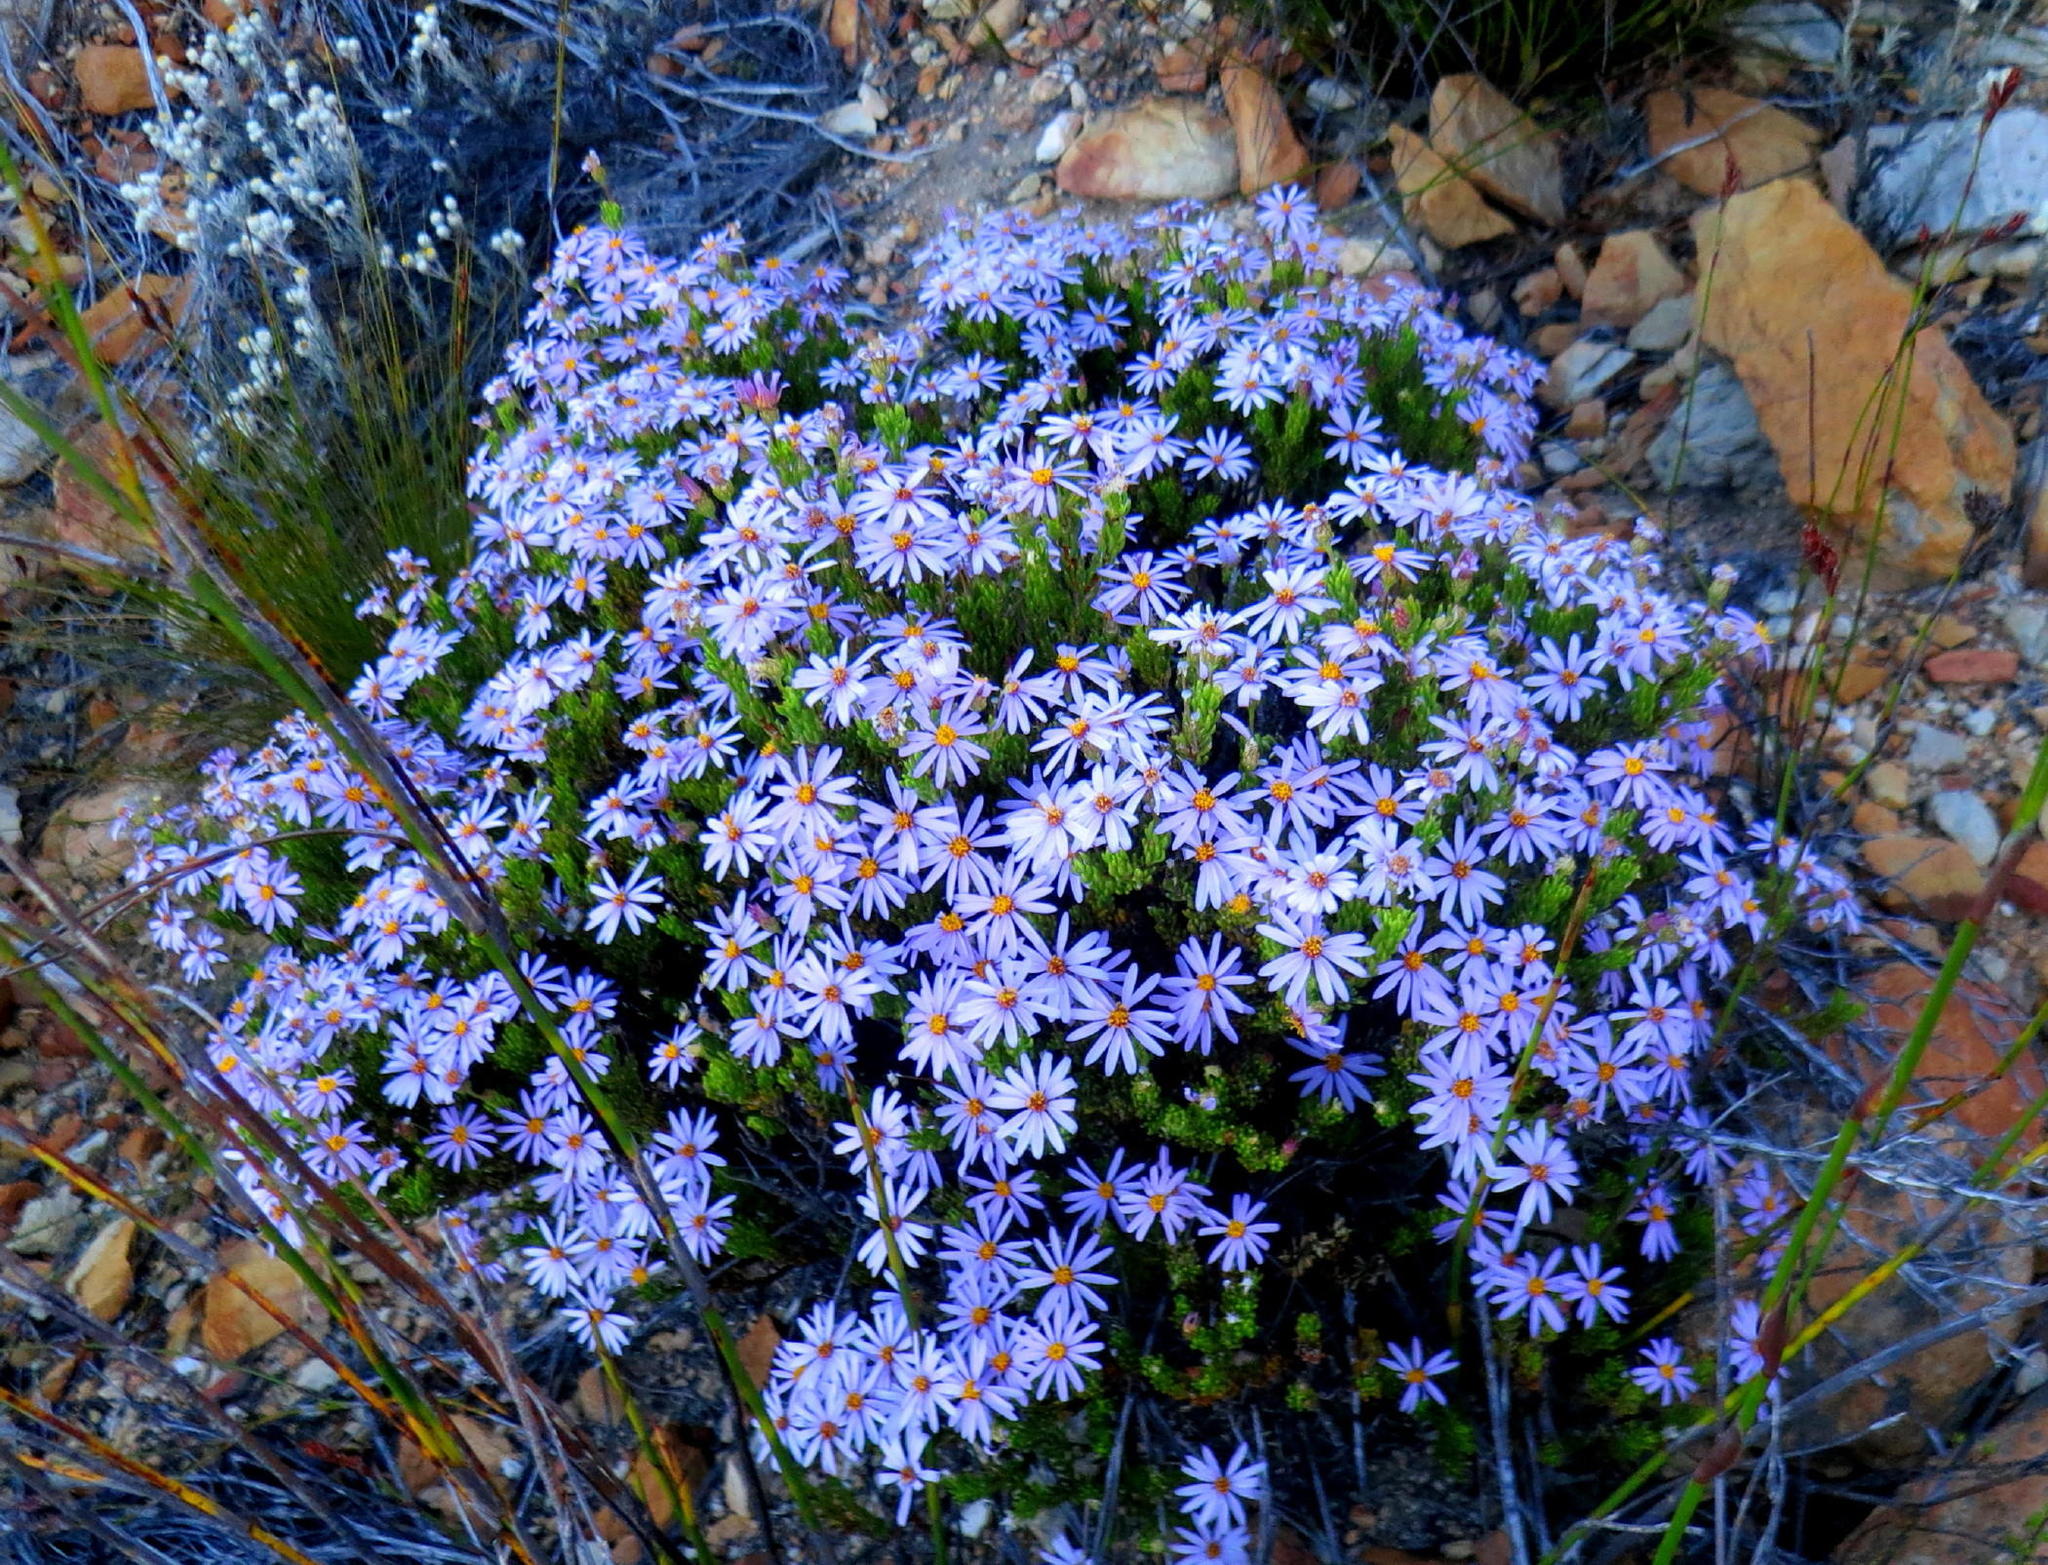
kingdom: Plantae
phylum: Tracheophyta
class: Magnoliopsida
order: Asterales
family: Asteraceae
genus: Felicia
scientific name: Felicia filifolia
